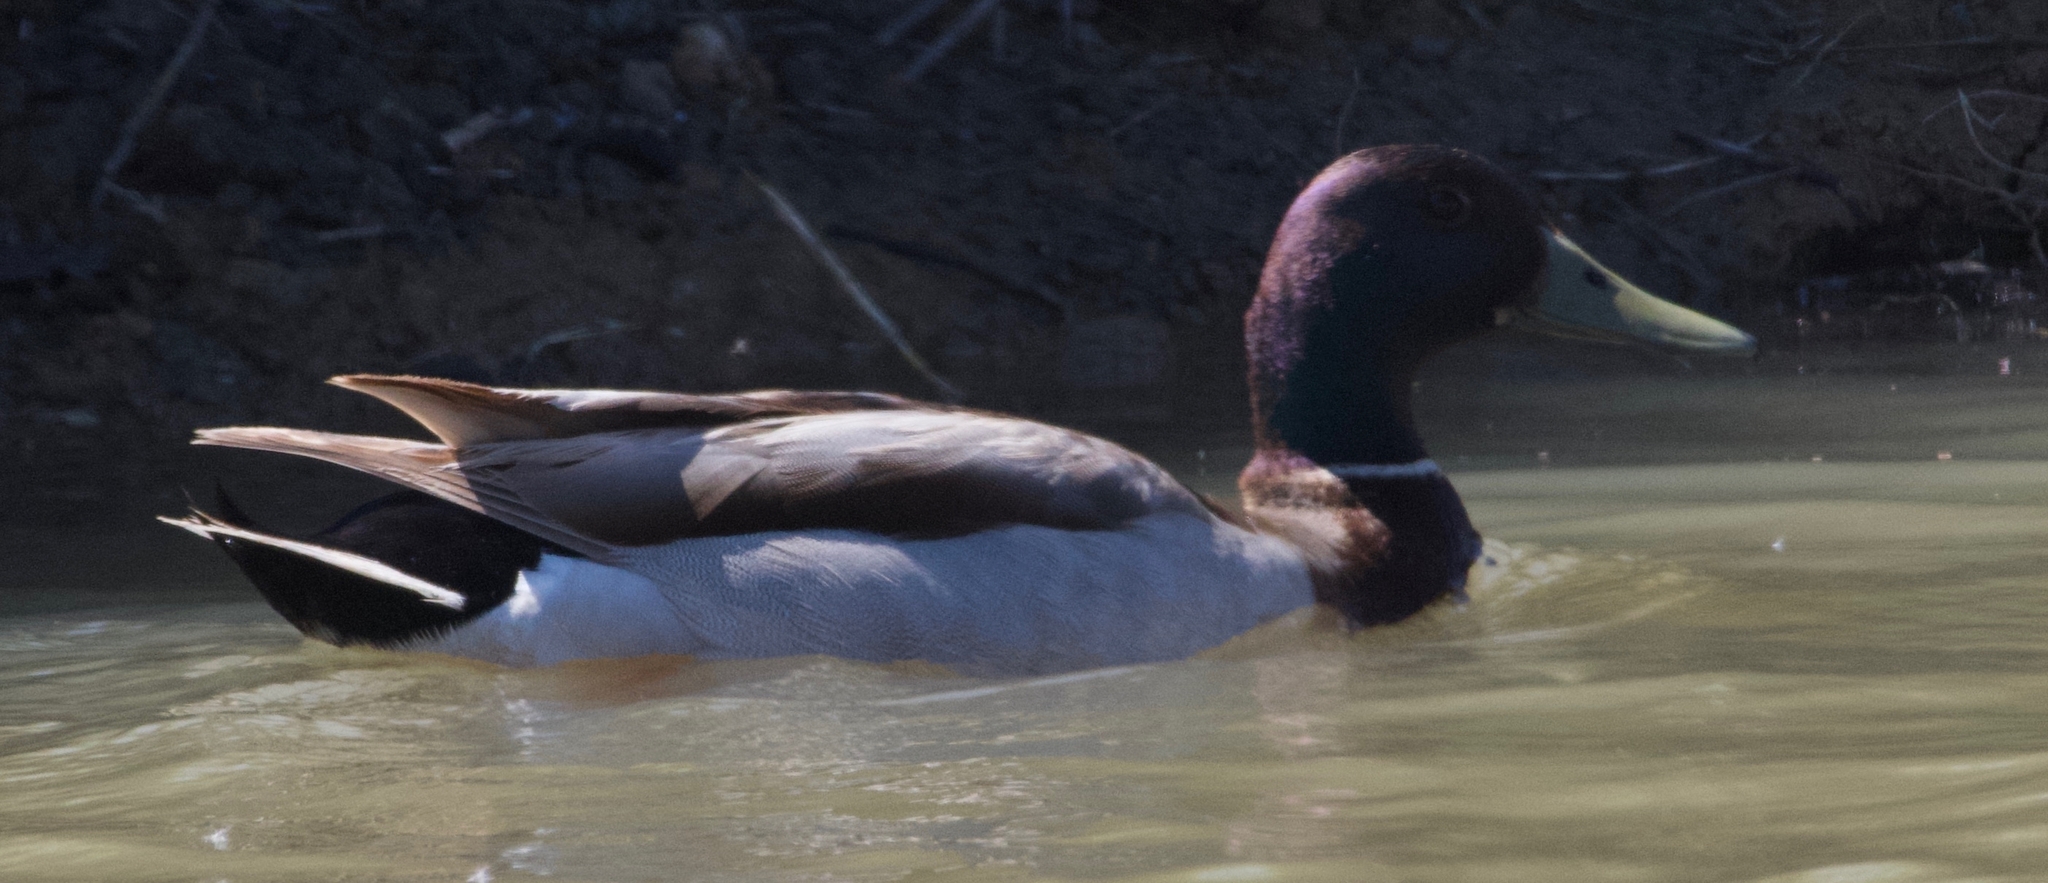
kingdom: Animalia
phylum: Chordata
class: Aves
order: Anseriformes
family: Anatidae
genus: Anas
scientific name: Anas platyrhynchos
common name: Mallard
